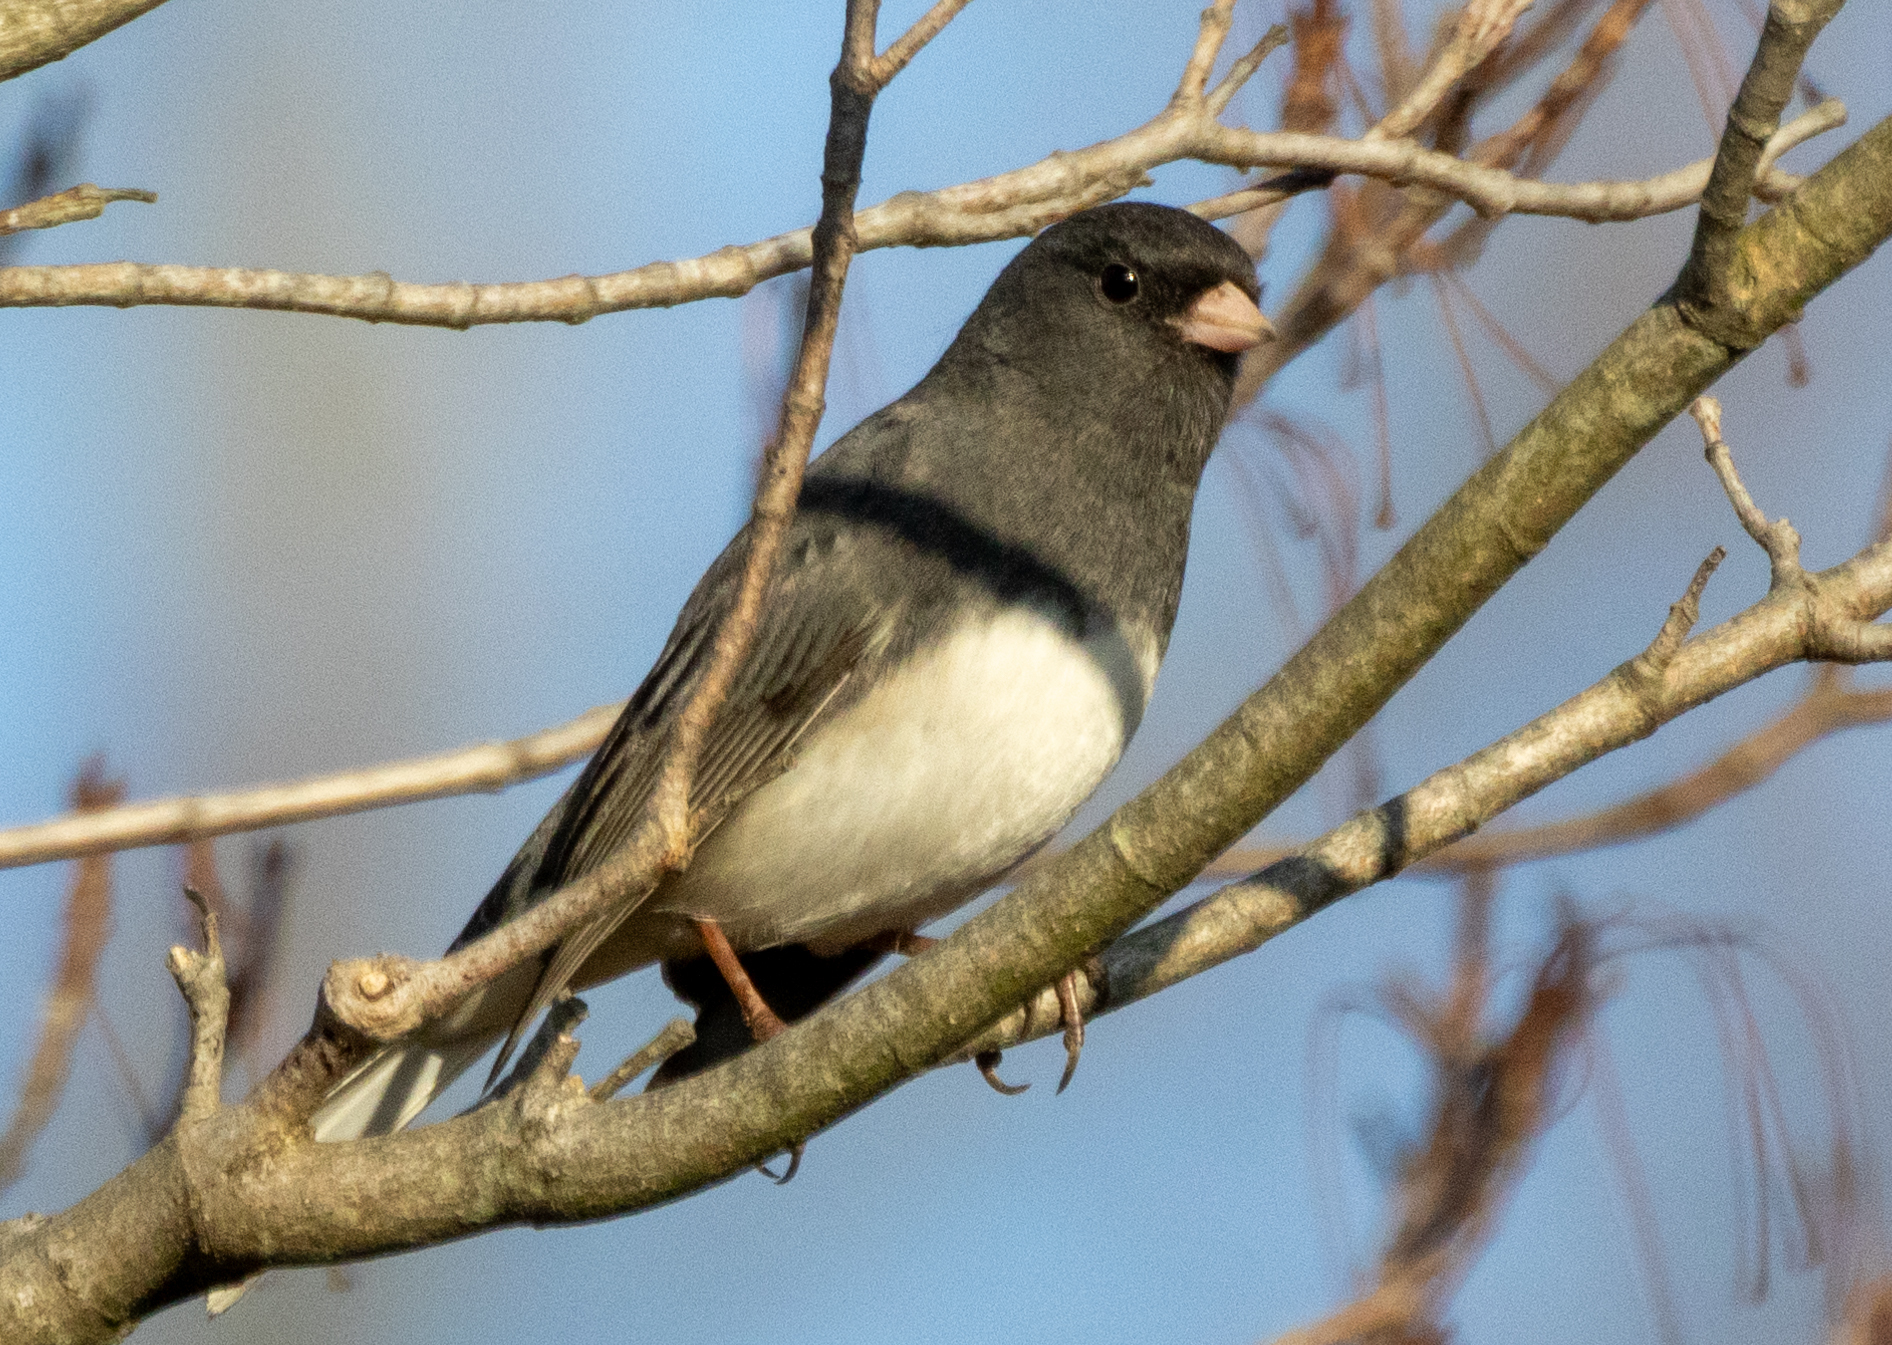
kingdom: Animalia
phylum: Chordata
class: Aves
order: Passeriformes
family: Passerellidae
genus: Junco
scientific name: Junco hyemalis
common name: Dark-eyed junco
